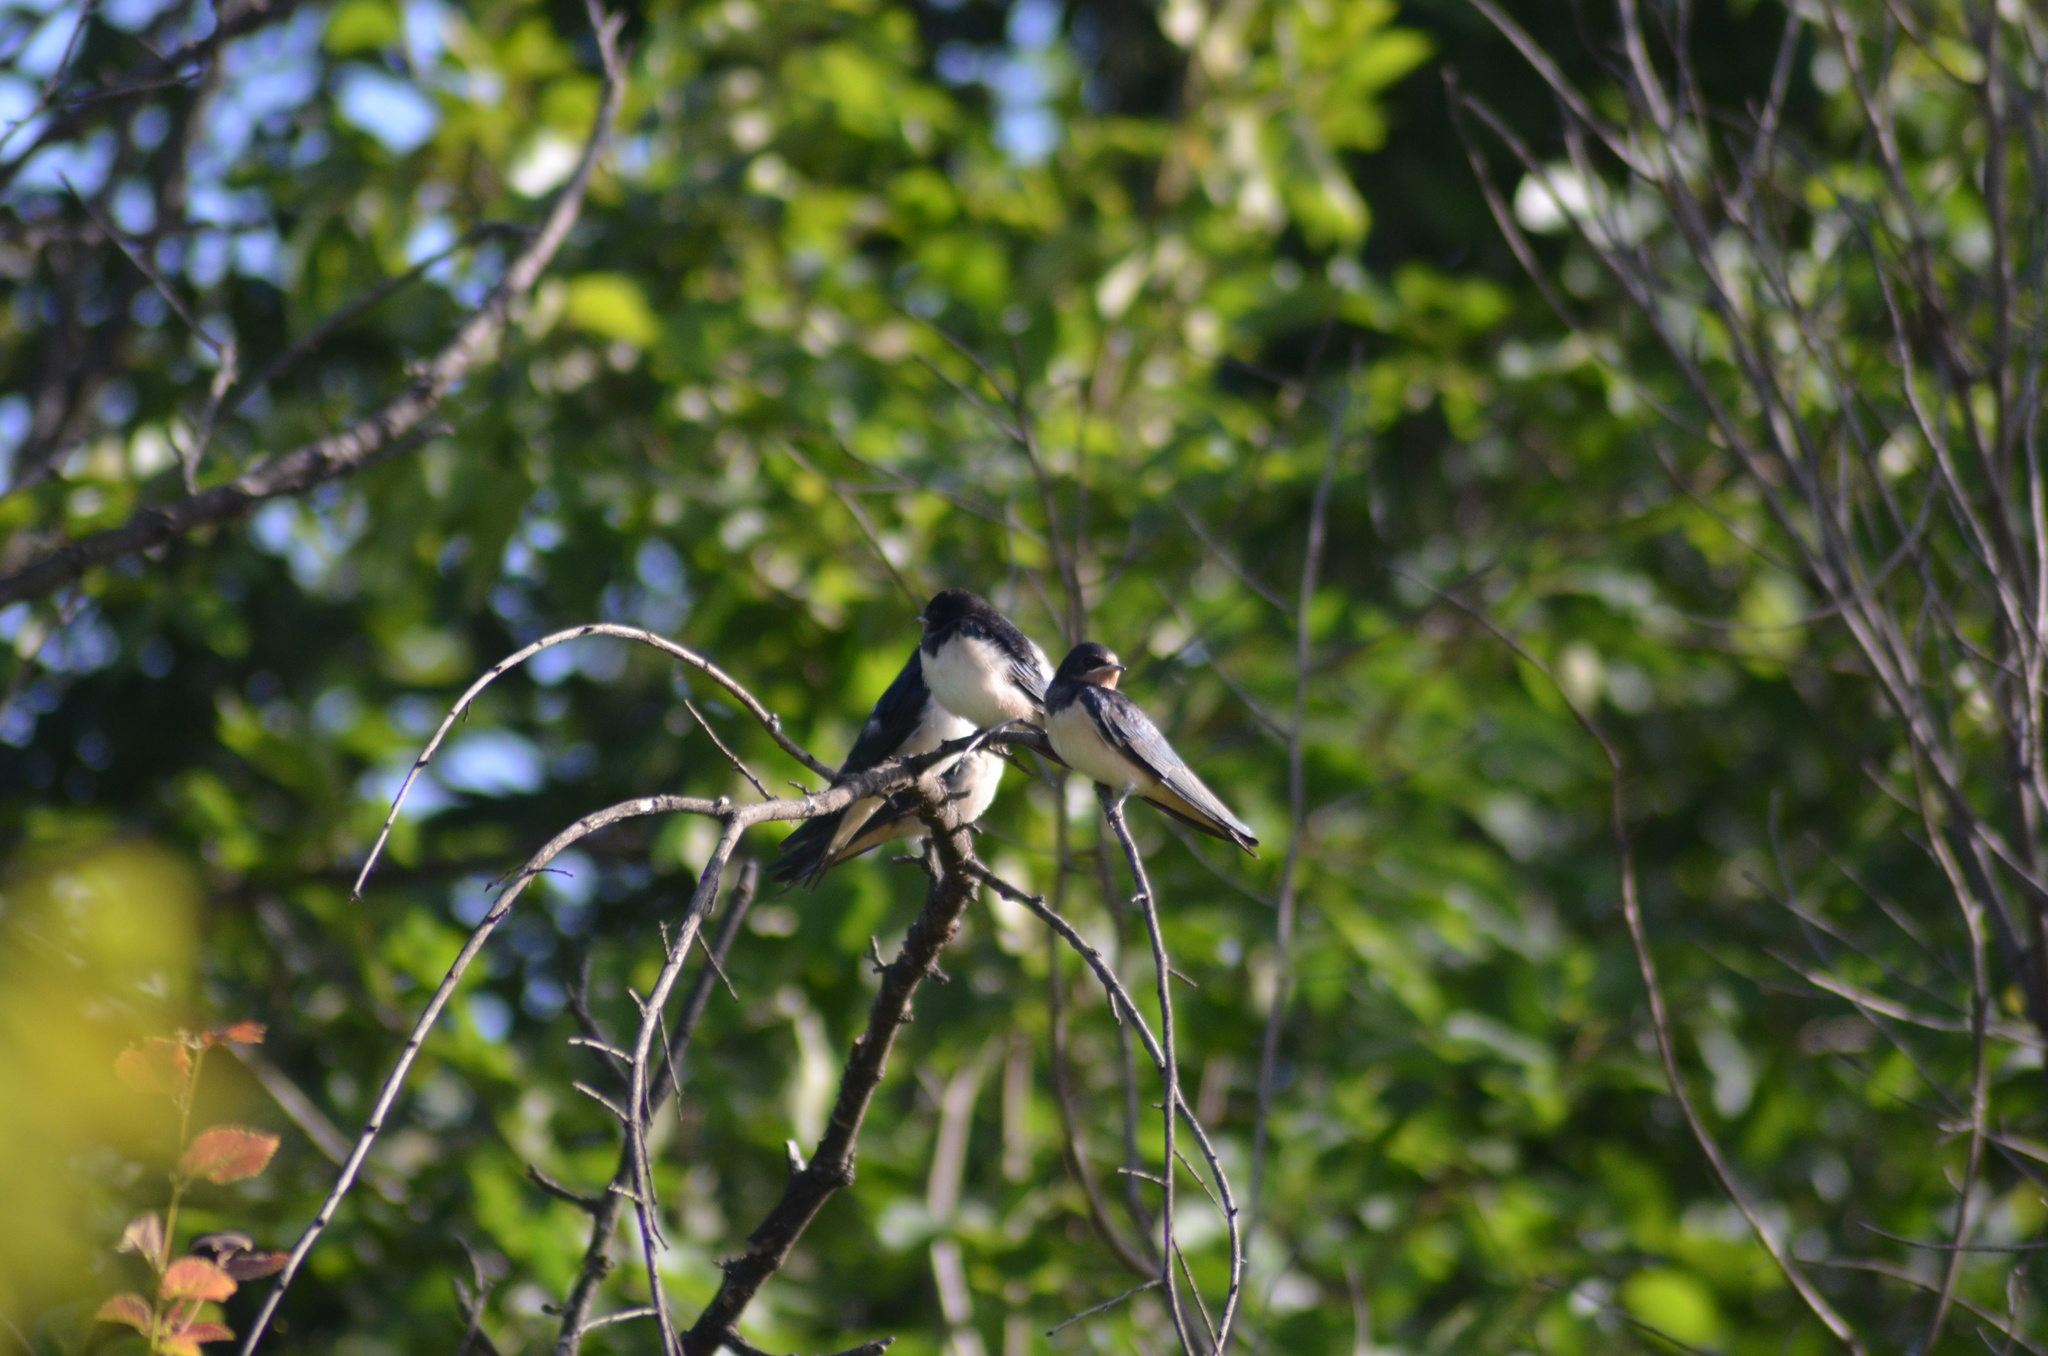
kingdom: Animalia
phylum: Chordata
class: Aves
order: Passeriformes
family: Hirundinidae
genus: Hirundo
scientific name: Hirundo rustica
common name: Barn swallow
